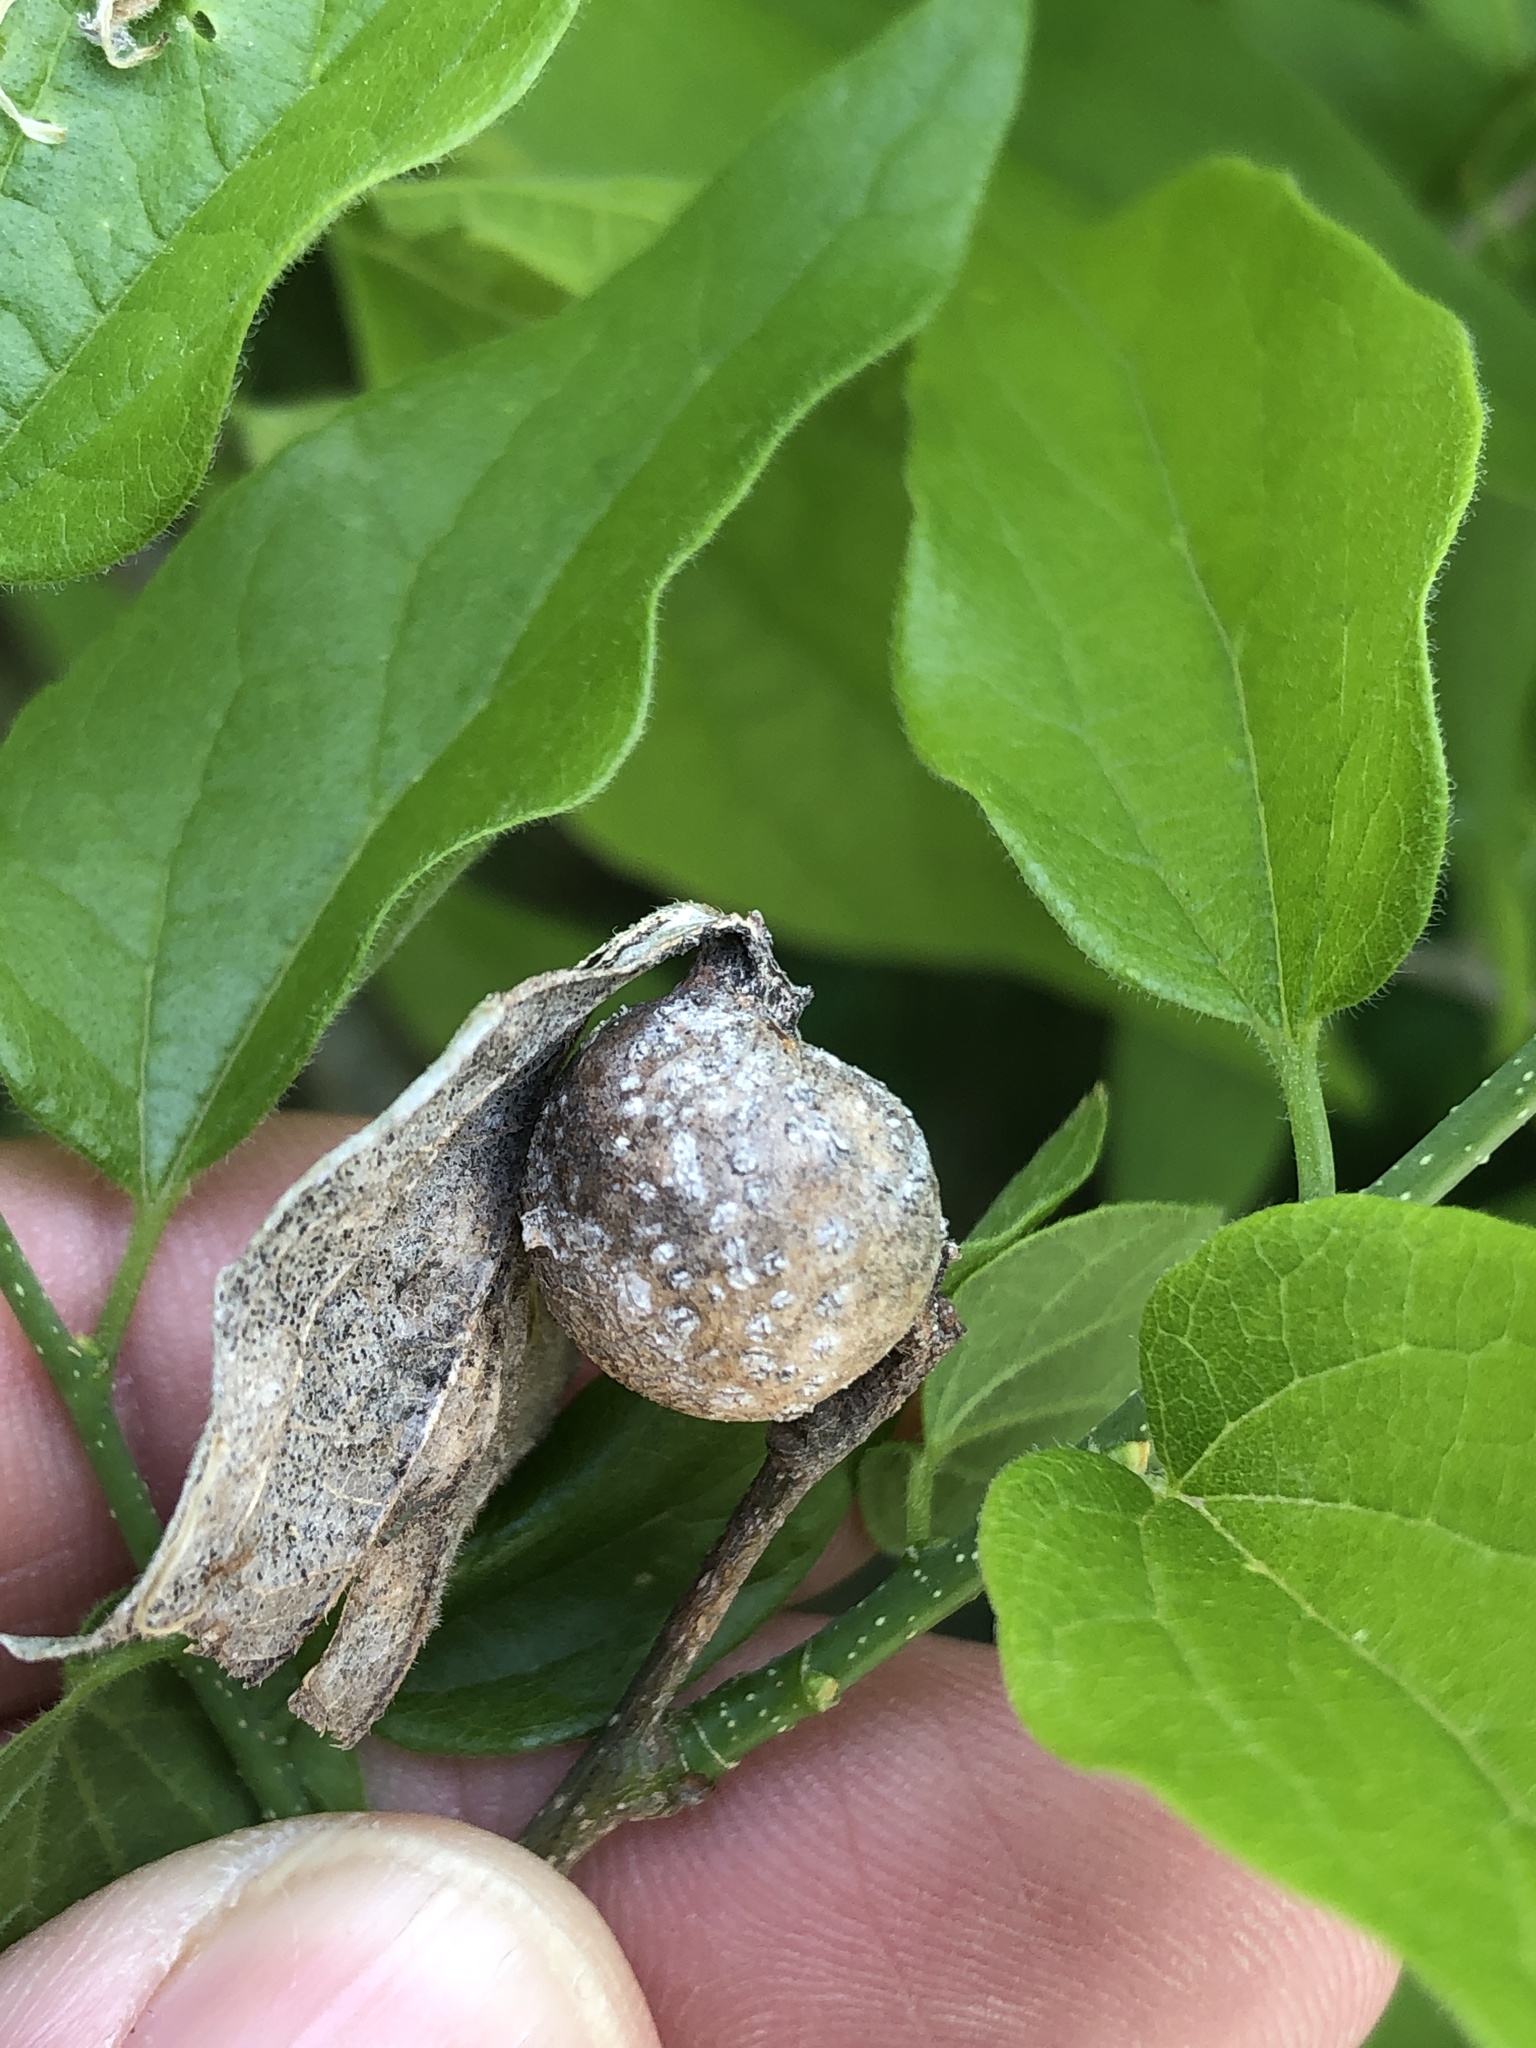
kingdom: Animalia
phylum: Arthropoda
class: Insecta
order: Hemiptera
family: Aphalaridae
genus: Pachypsylla
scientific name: Pachypsylla venusta
